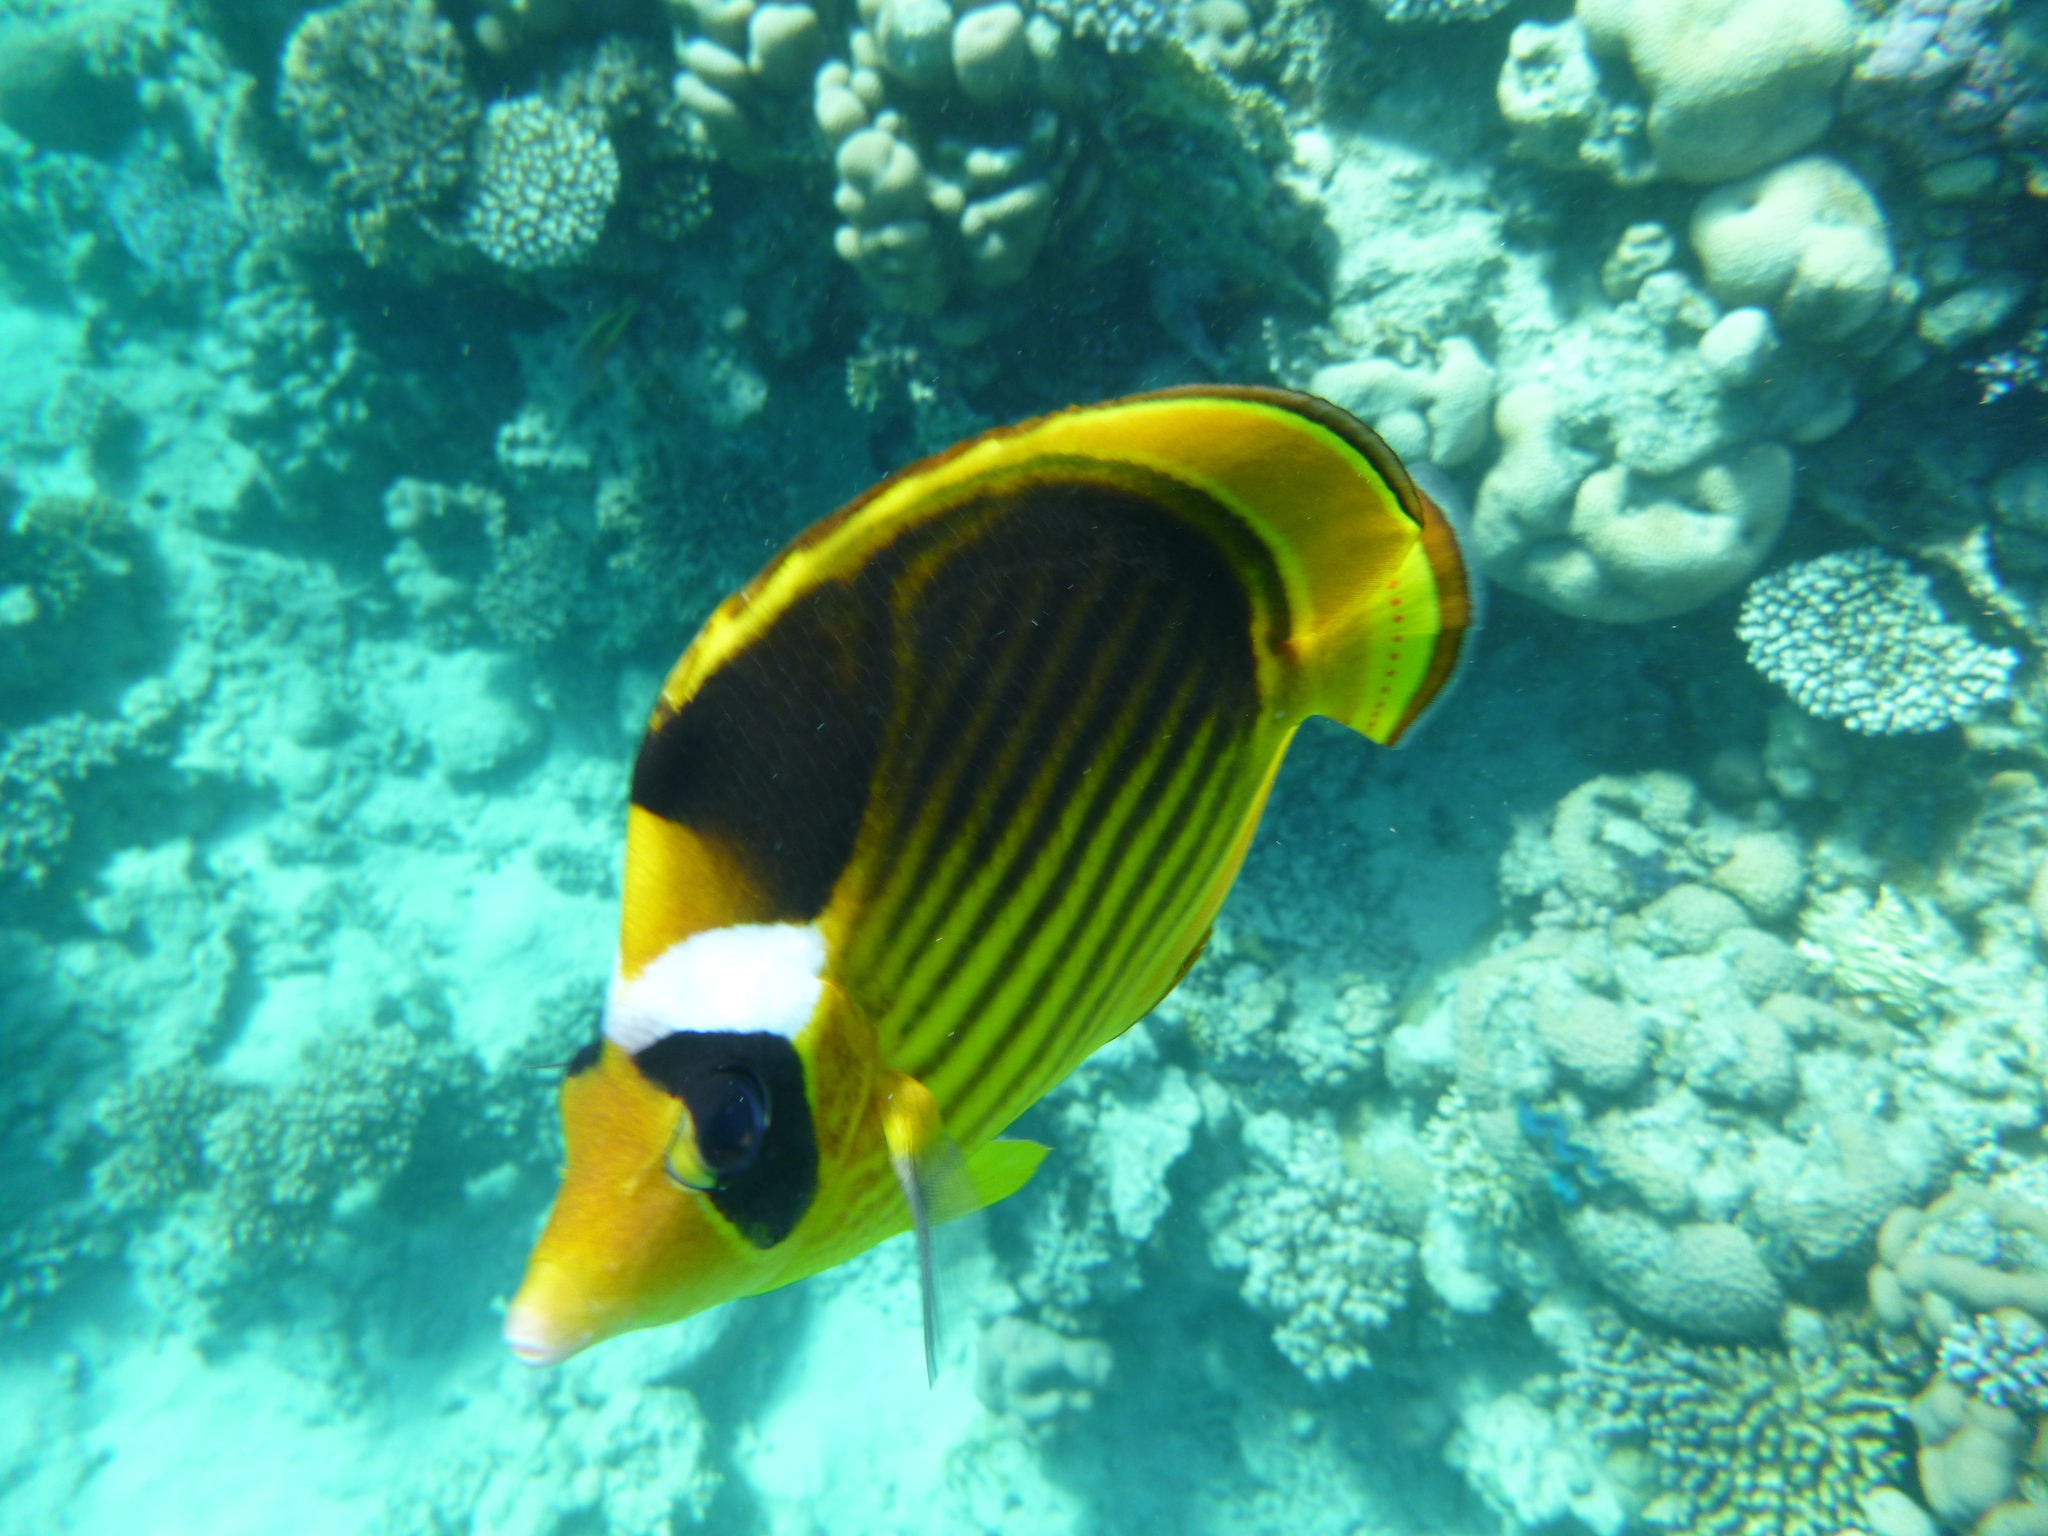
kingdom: Animalia
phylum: Chordata
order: Perciformes
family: Chaetodontidae
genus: Chaetodon
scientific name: Chaetodon fasciatus
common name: Diagonal butterflyfish
